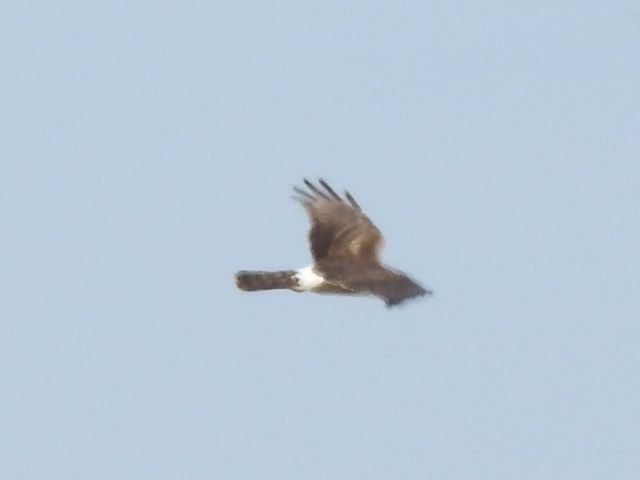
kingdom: Animalia
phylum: Chordata
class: Aves
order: Accipitriformes
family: Accipitridae
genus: Circus
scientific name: Circus cyaneus
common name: Hen harrier
